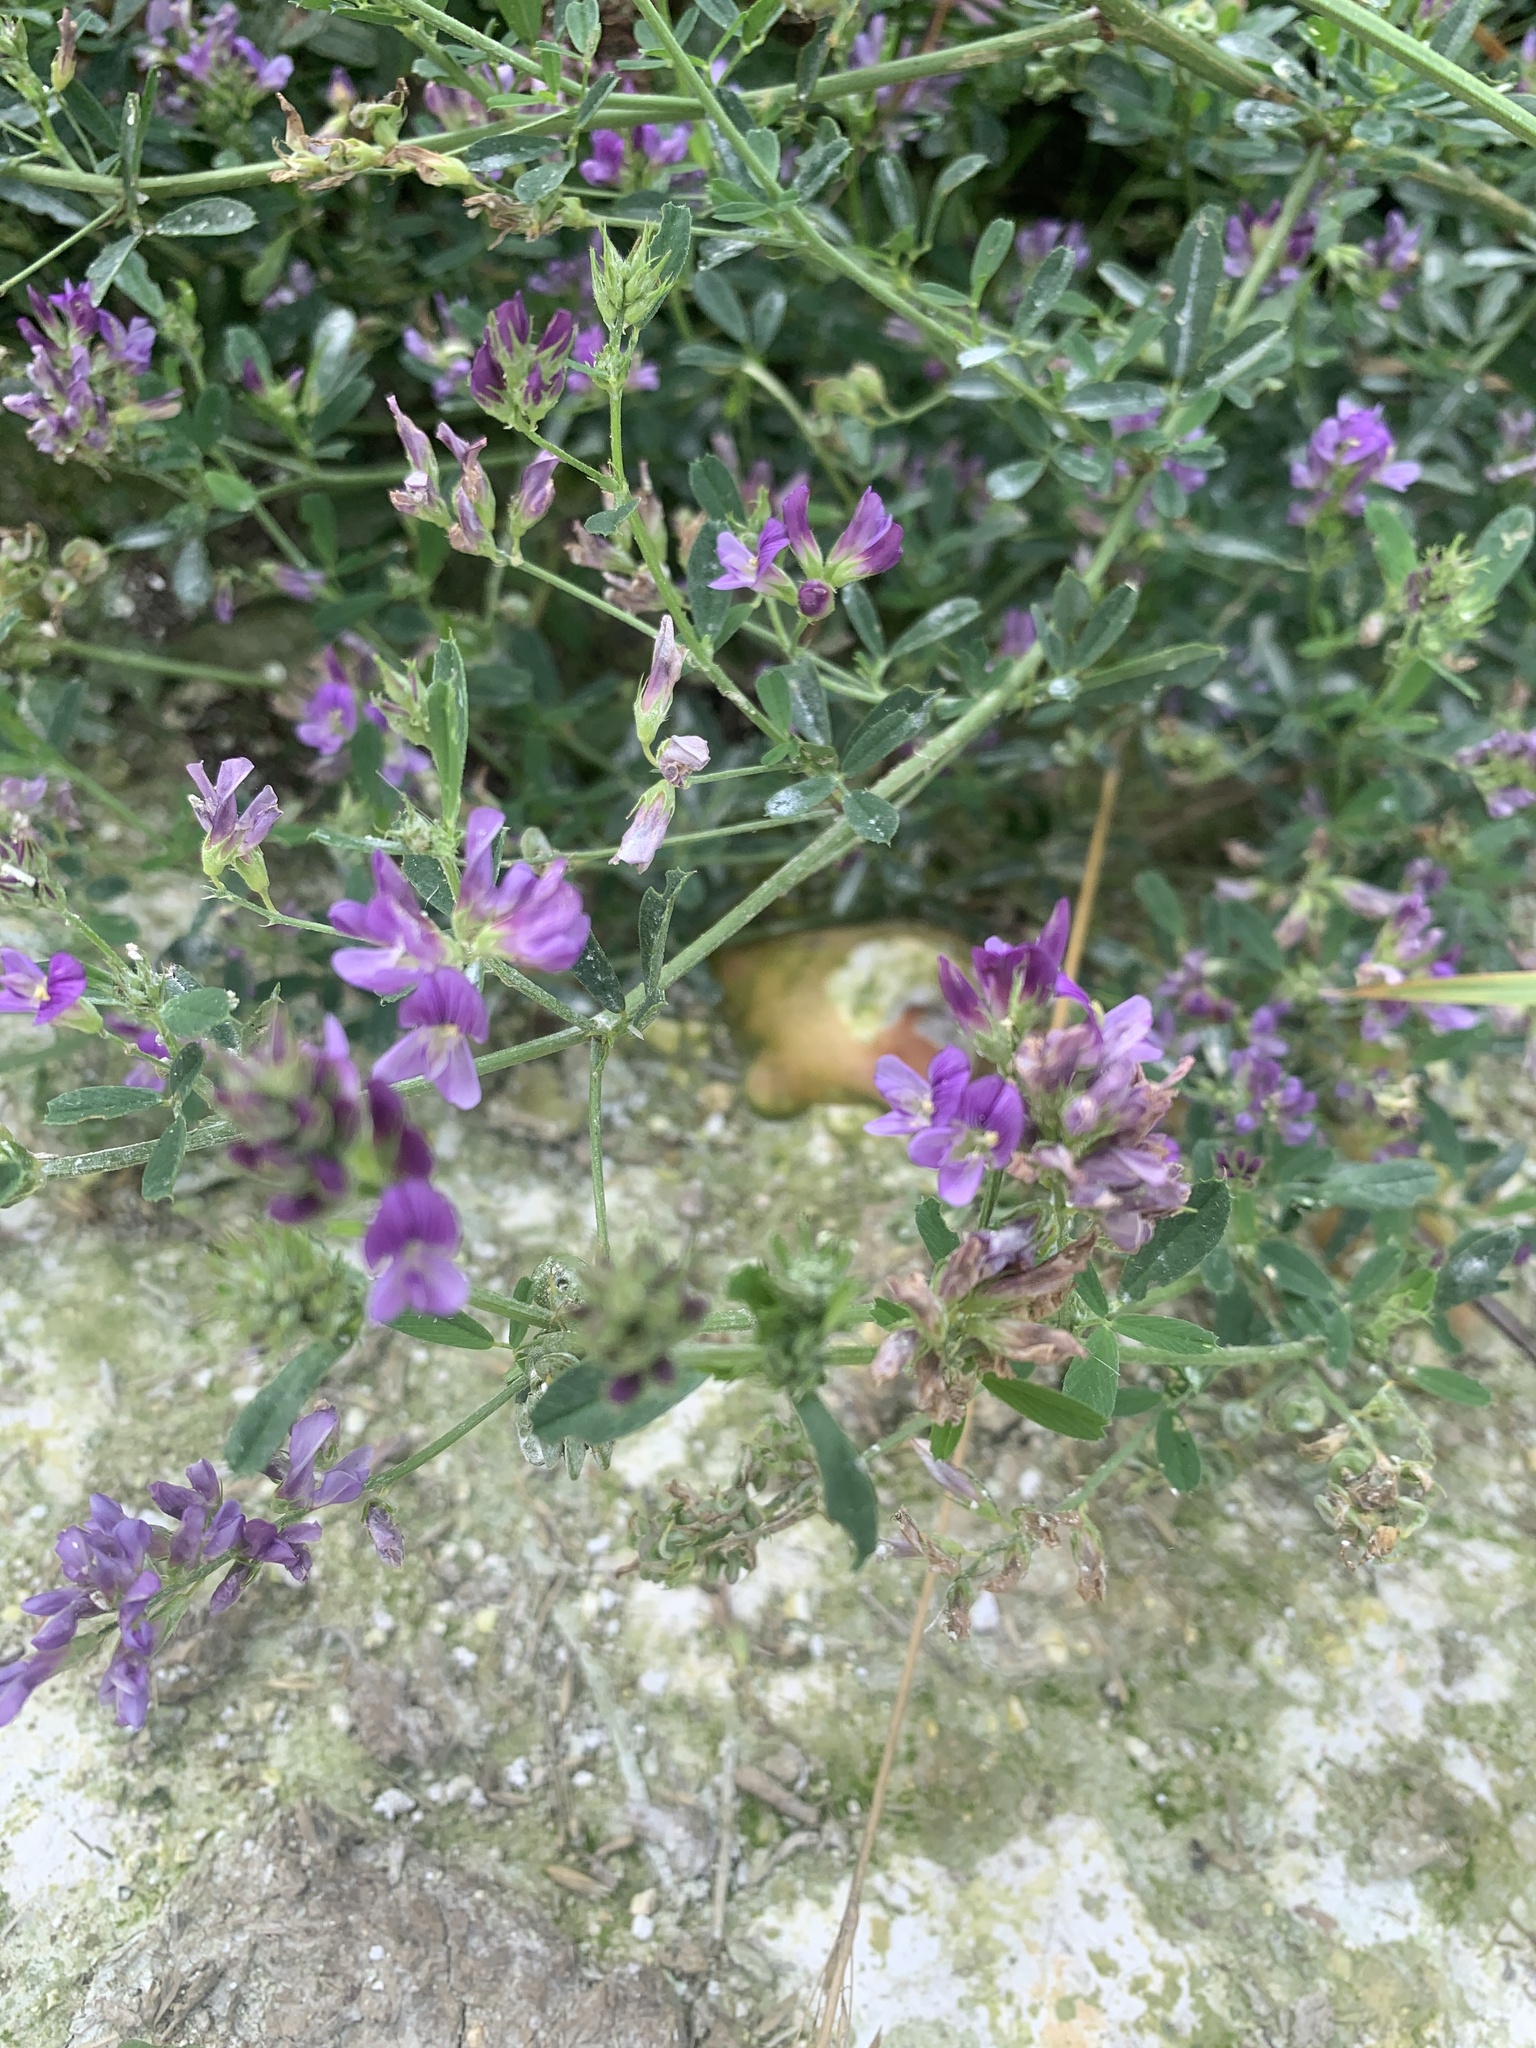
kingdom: Plantae
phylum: Tracheophyta
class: Magnoliopsida
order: Fabales
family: Fabaceae
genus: Medicago
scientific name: Medicago sativa
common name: Alfalfa
